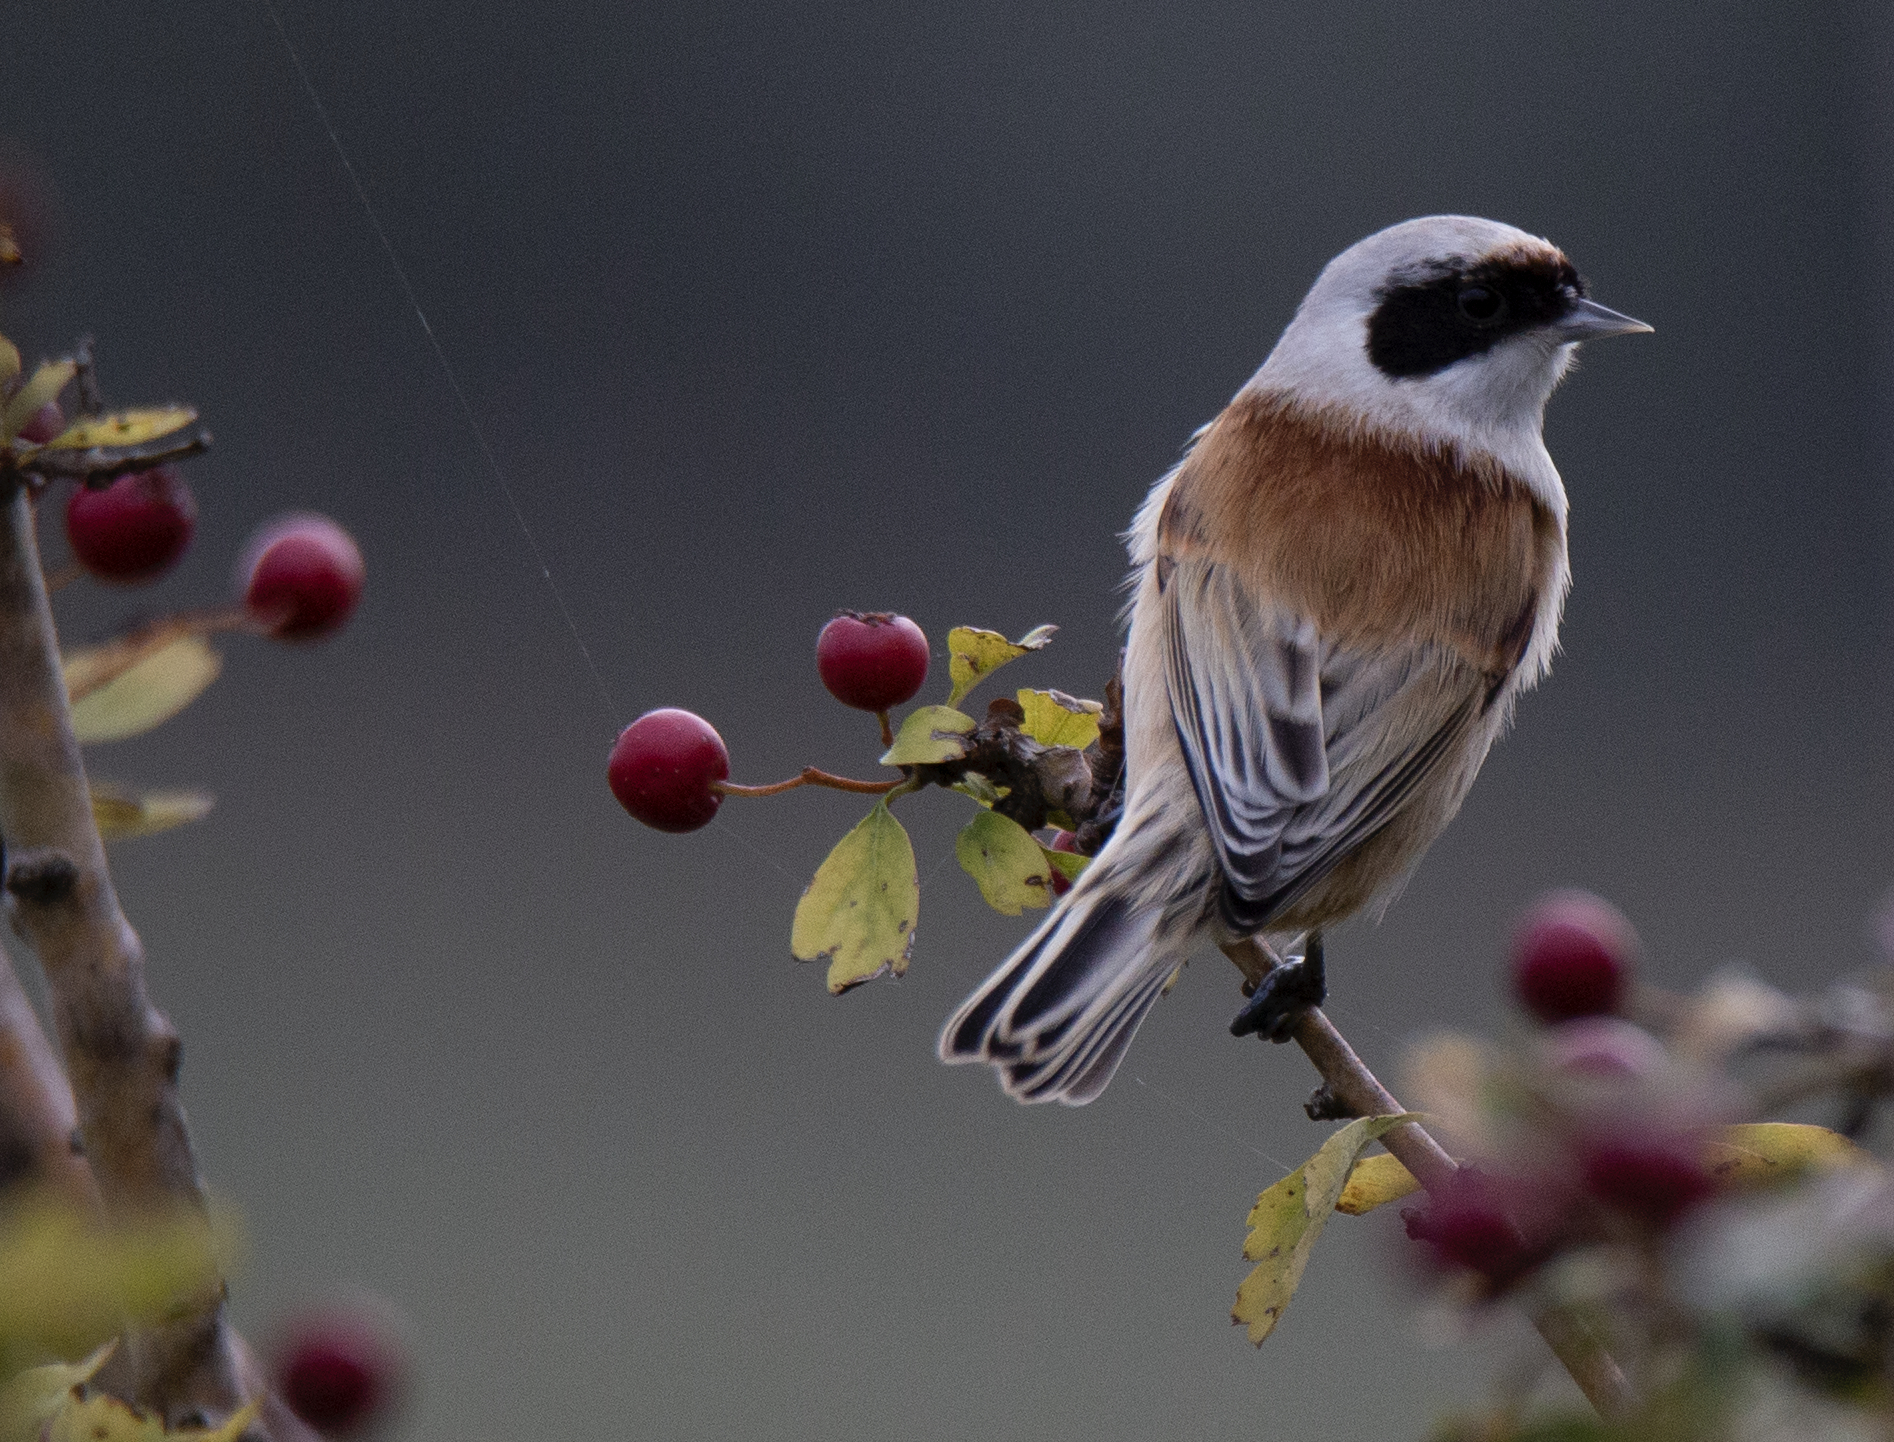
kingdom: Animalia
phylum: Chordata
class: Aves
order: Passeriformes
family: Remizidae
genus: Remiz
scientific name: Remiz pendulinus
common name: Eurasian penduline tit
